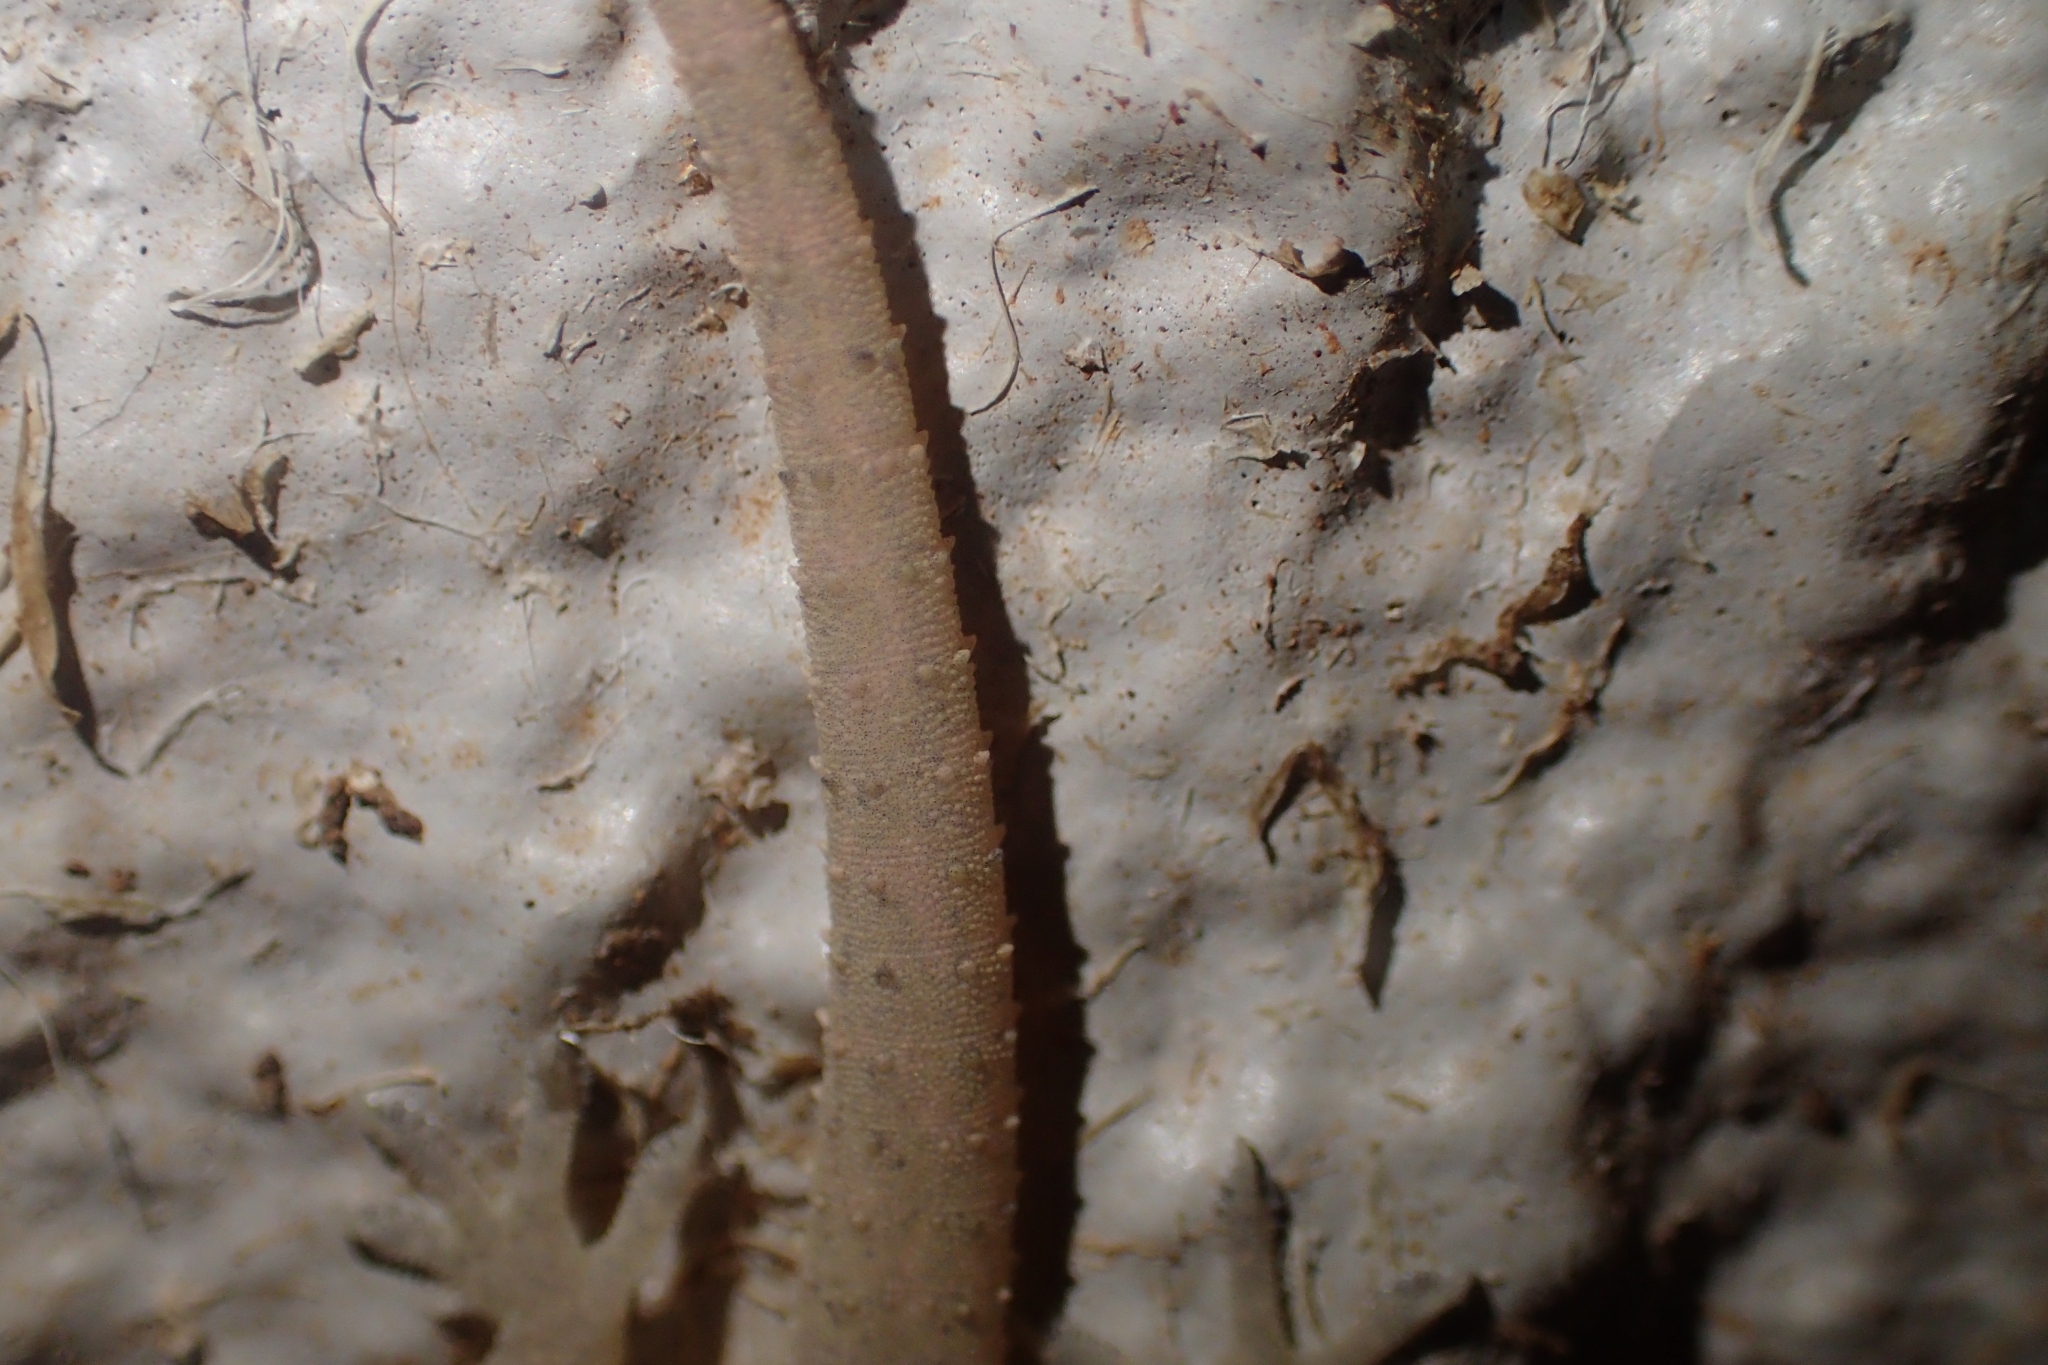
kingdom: Animalia
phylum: Chordata
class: Squamata
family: Gekkonidae
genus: Hemidactylus
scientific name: Hemidactylus frenatus
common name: Common house gecko
